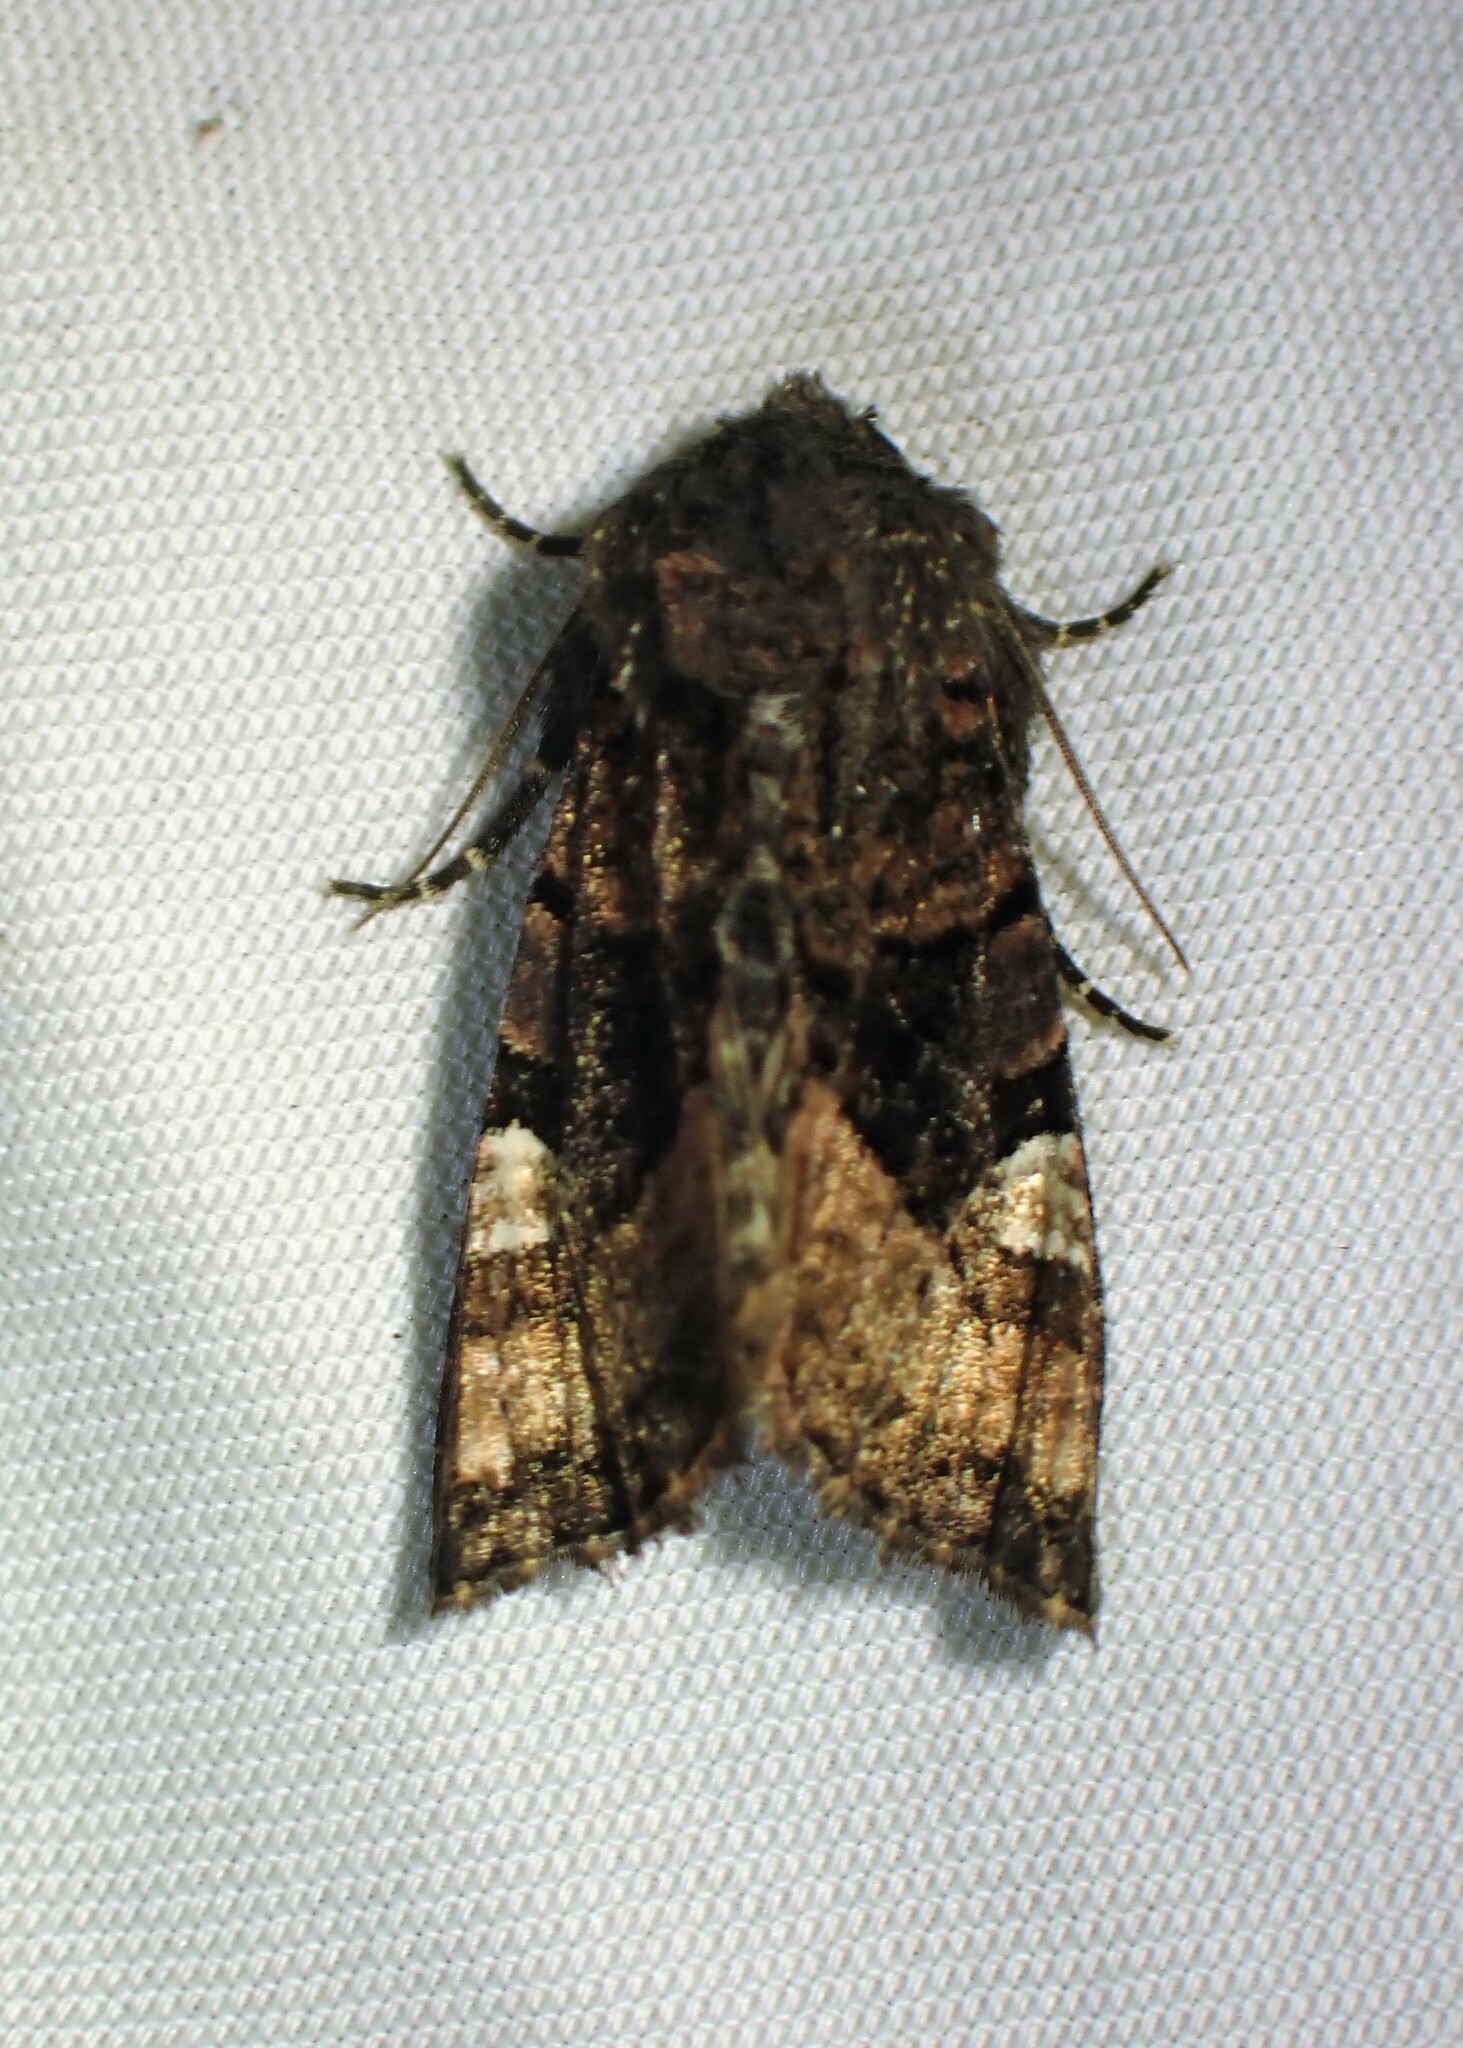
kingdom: Animalia
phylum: Arthropoda
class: Insecta
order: Lepidoptera
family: Noctuidae
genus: Euplexia
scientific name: Euplexia benesimilis
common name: American angle shades
